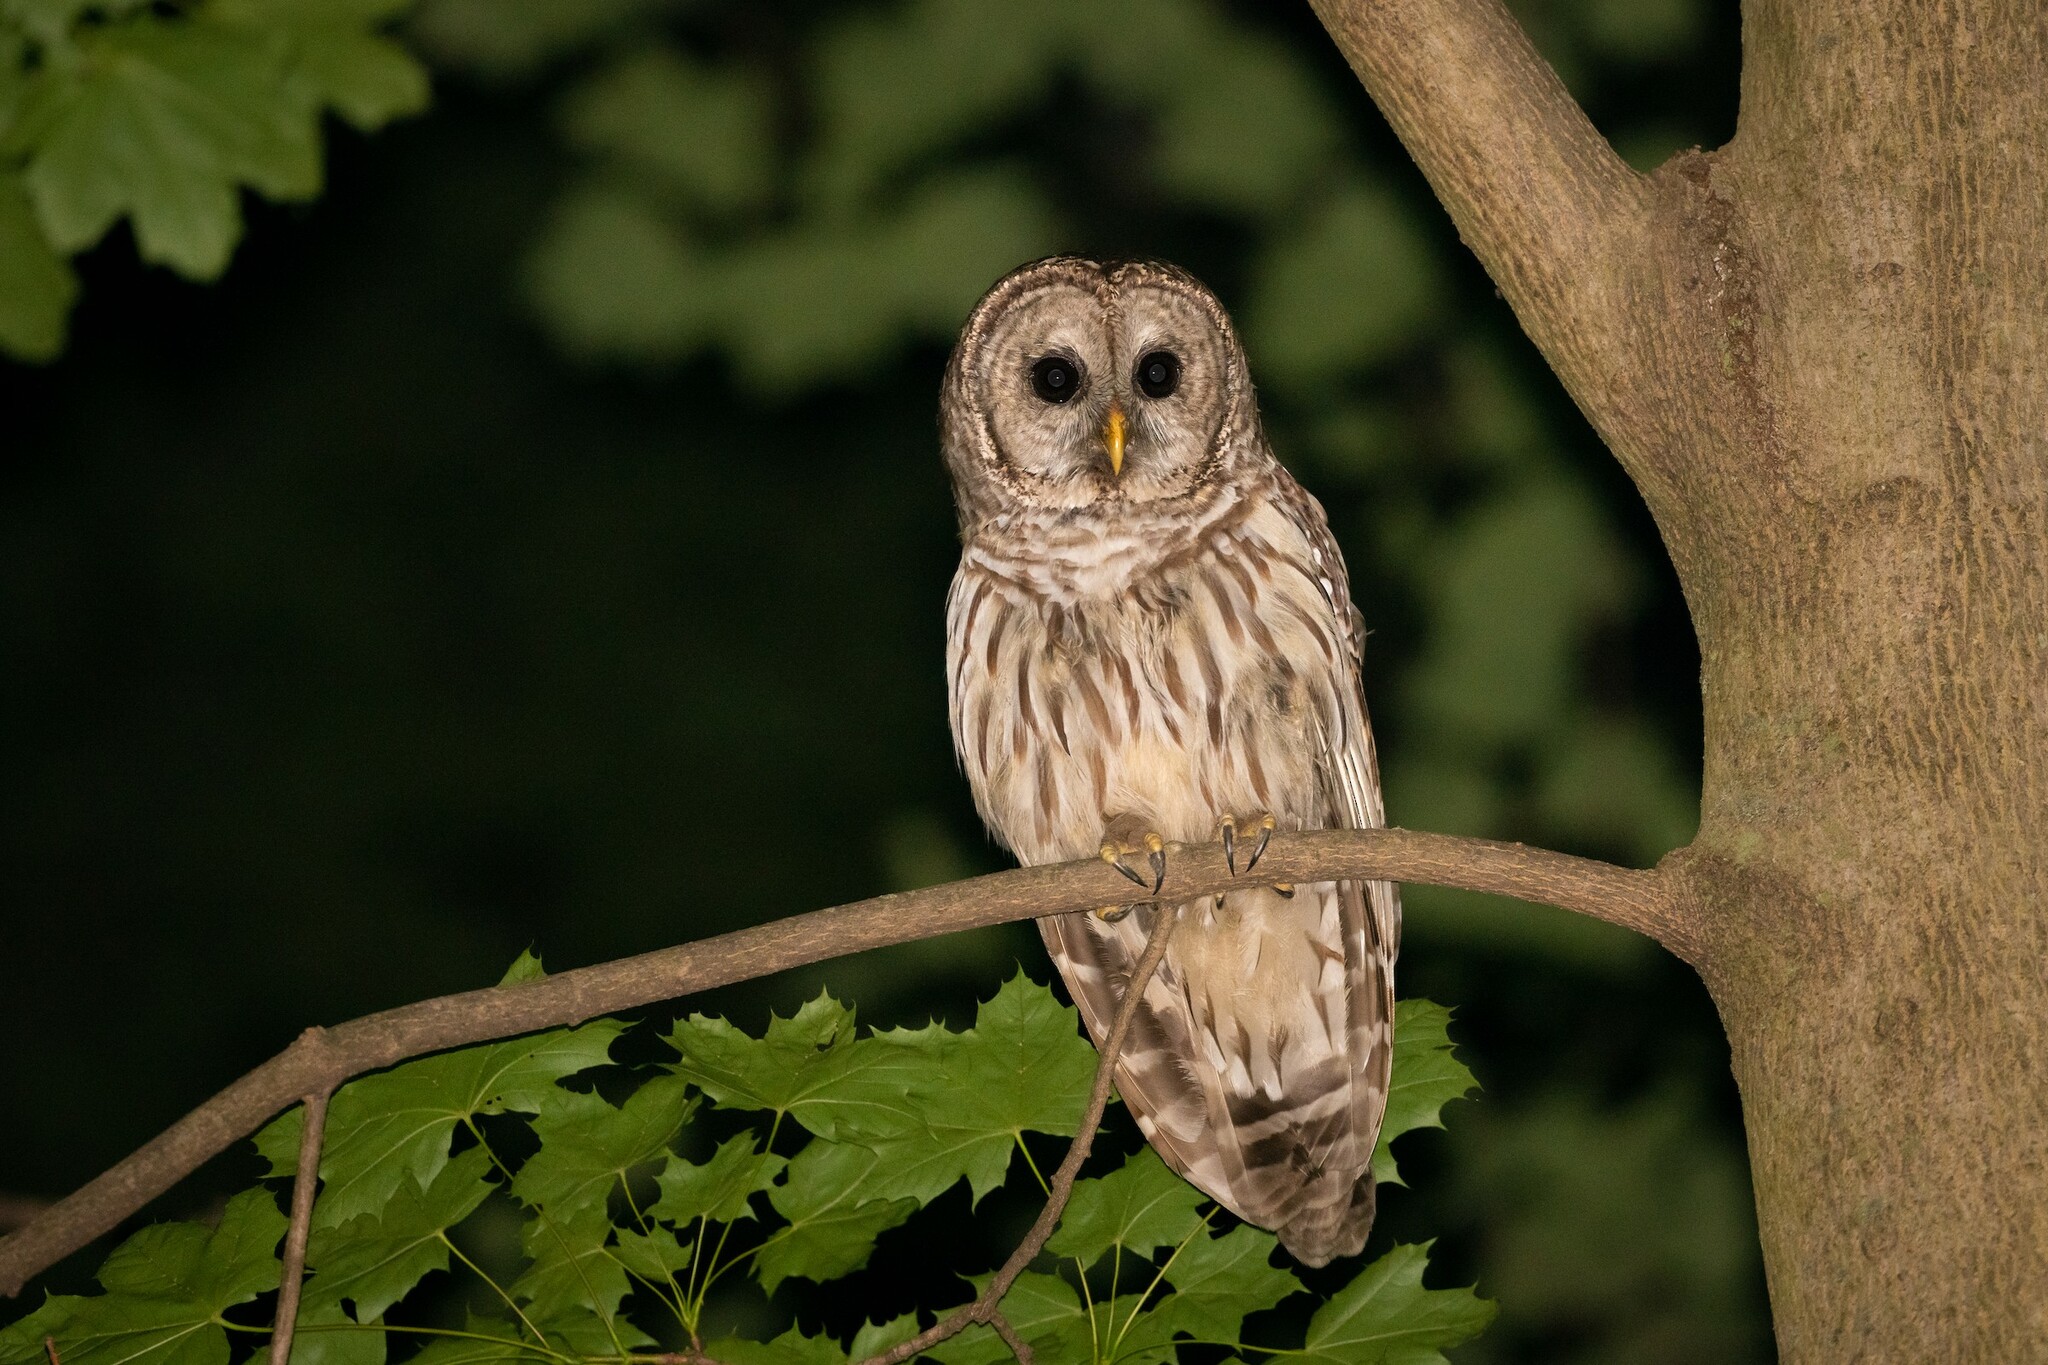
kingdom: Animalia
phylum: Chordata
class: Aves
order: Strigiformes
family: Strigidae
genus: Strix
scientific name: Strix varia
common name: Barred owl
